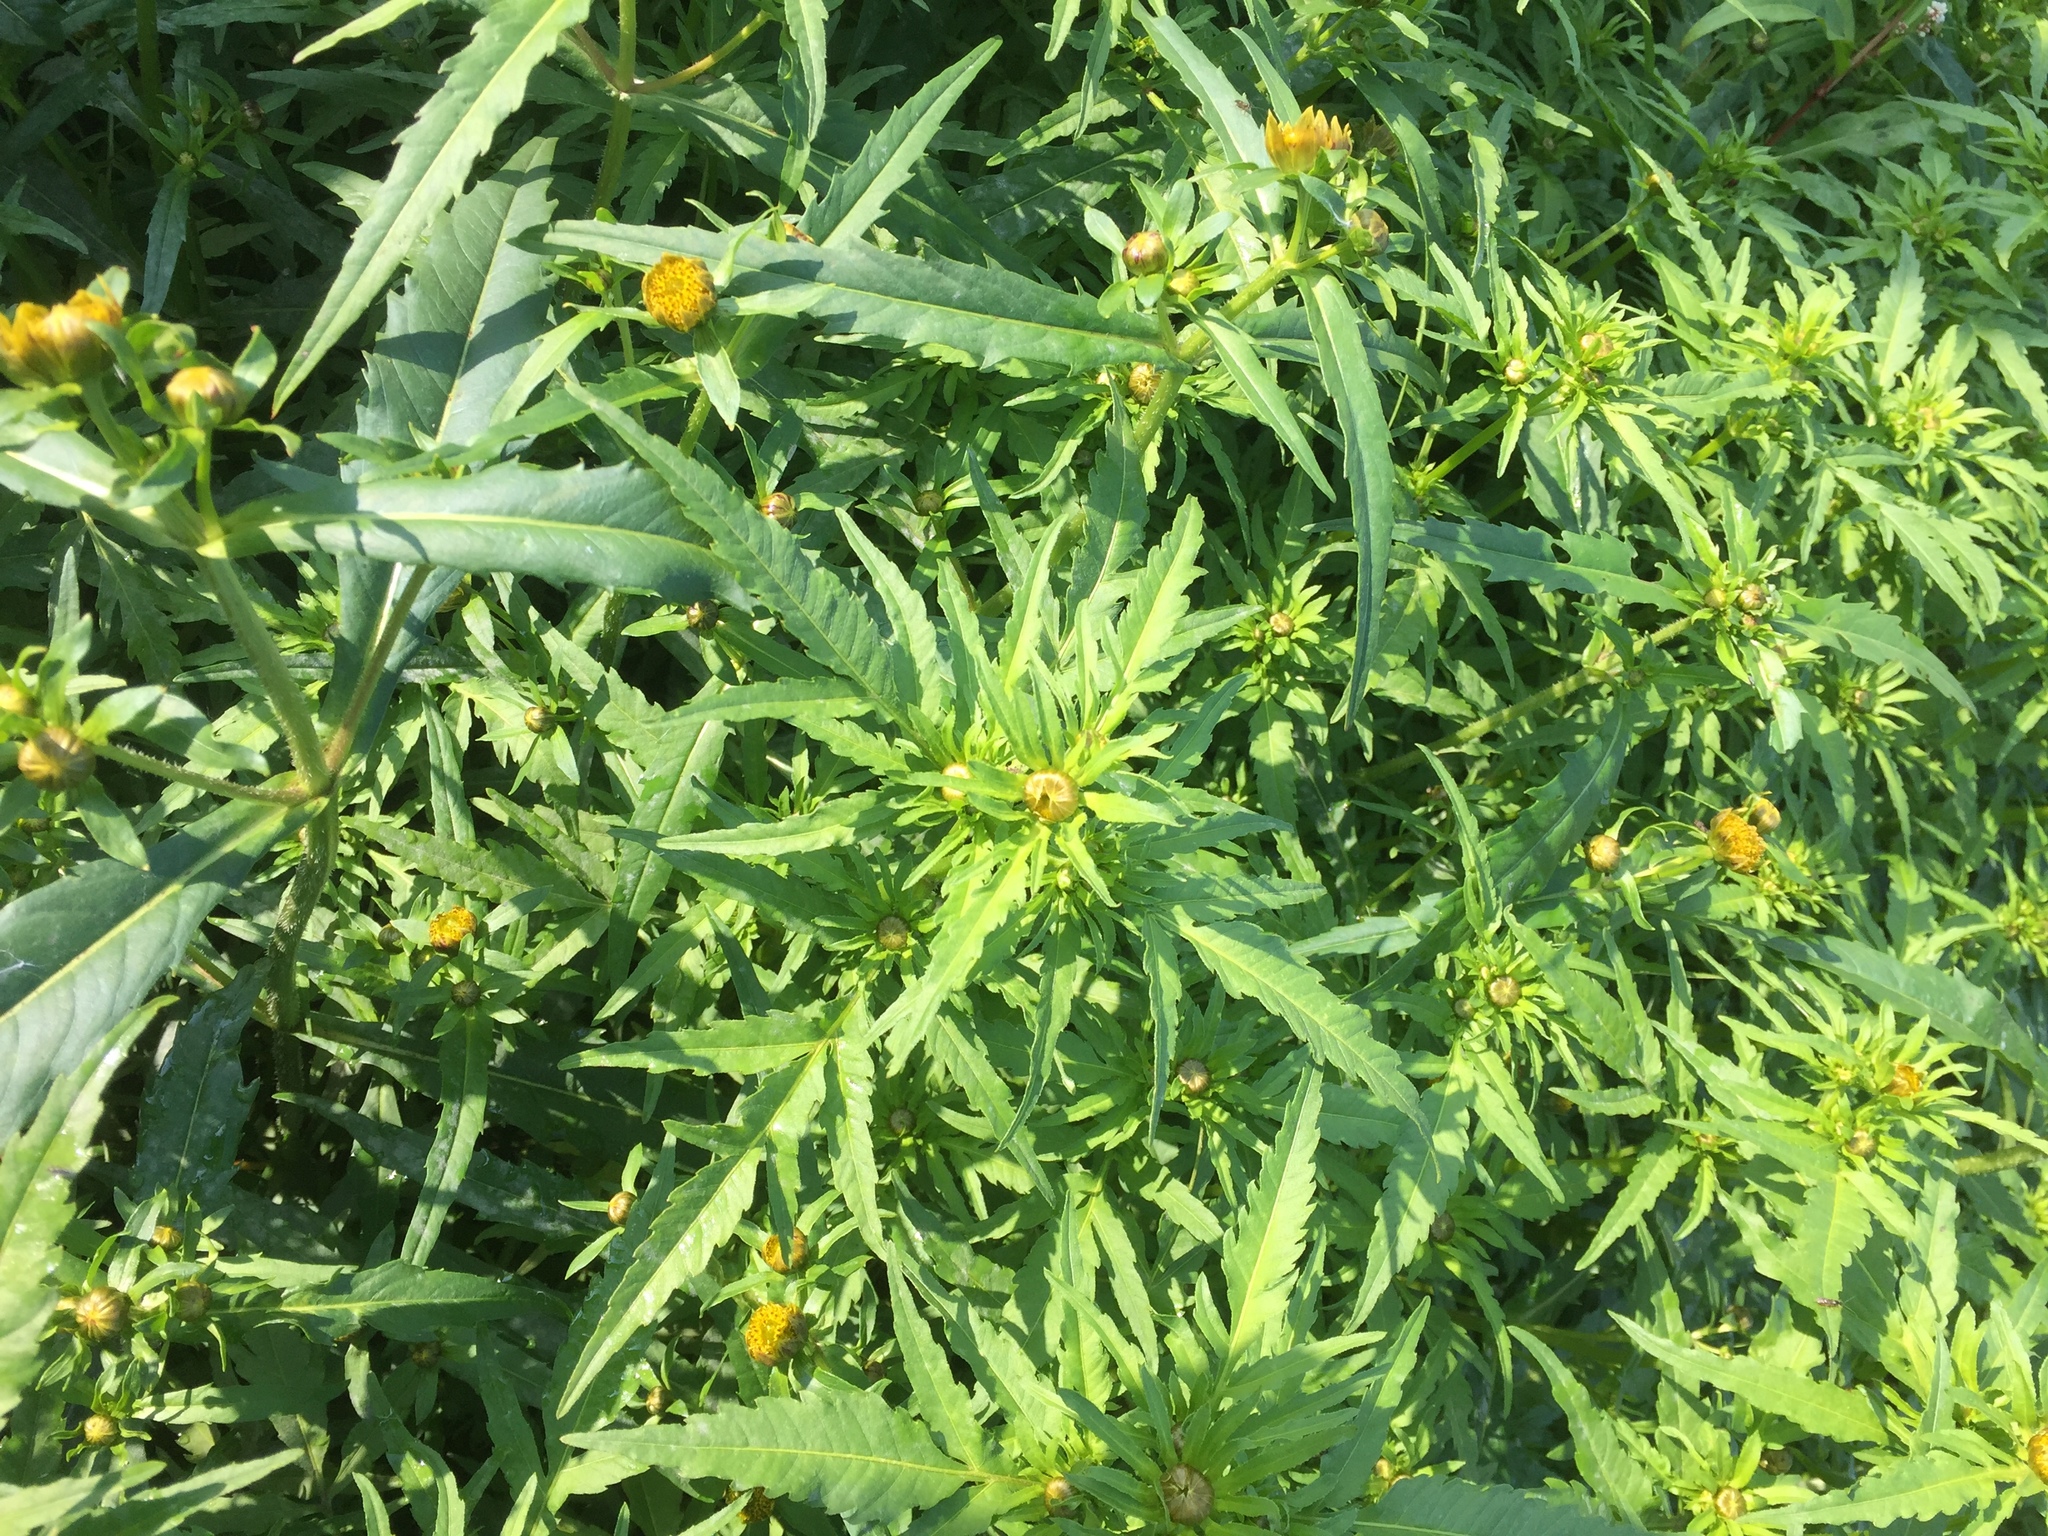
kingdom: Plantae
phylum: Tracheophyta
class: Magnoliopsida
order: Asterales
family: Asteraceae
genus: Bidens
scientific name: Bidens radiata
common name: Radiating bur-marigold
